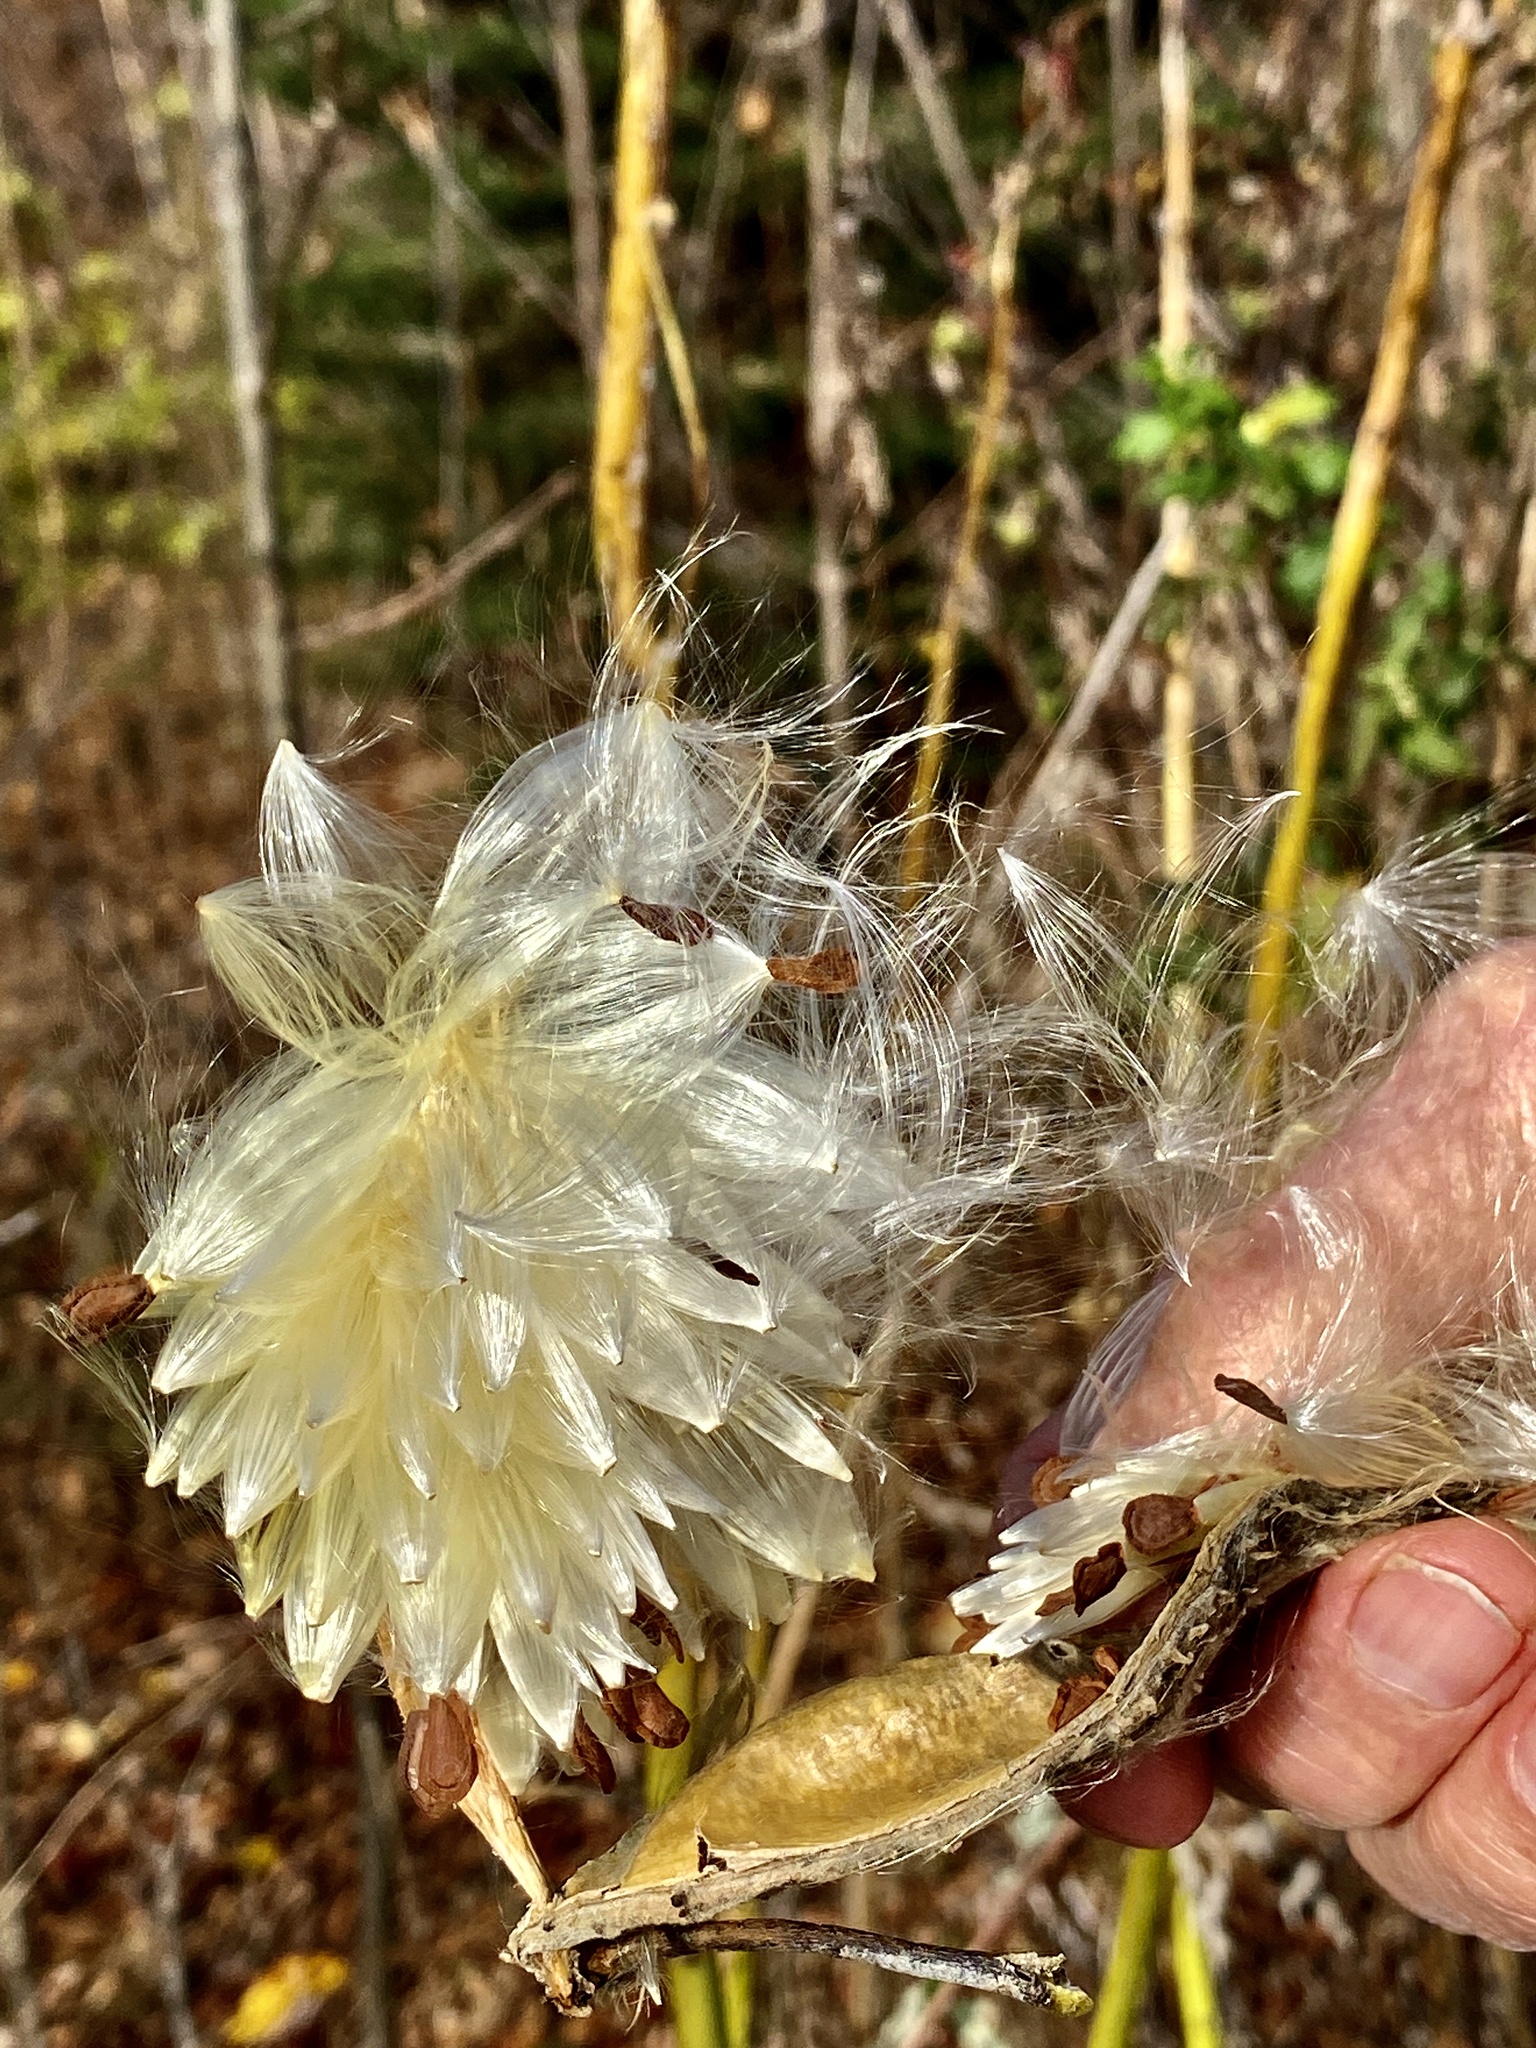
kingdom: Plantae
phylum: Tracheophyta
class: Magnoliopsida
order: Gentianales
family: Apocynaceae
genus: Asclepias
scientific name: Asclepias syriaca
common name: Common milkweed
